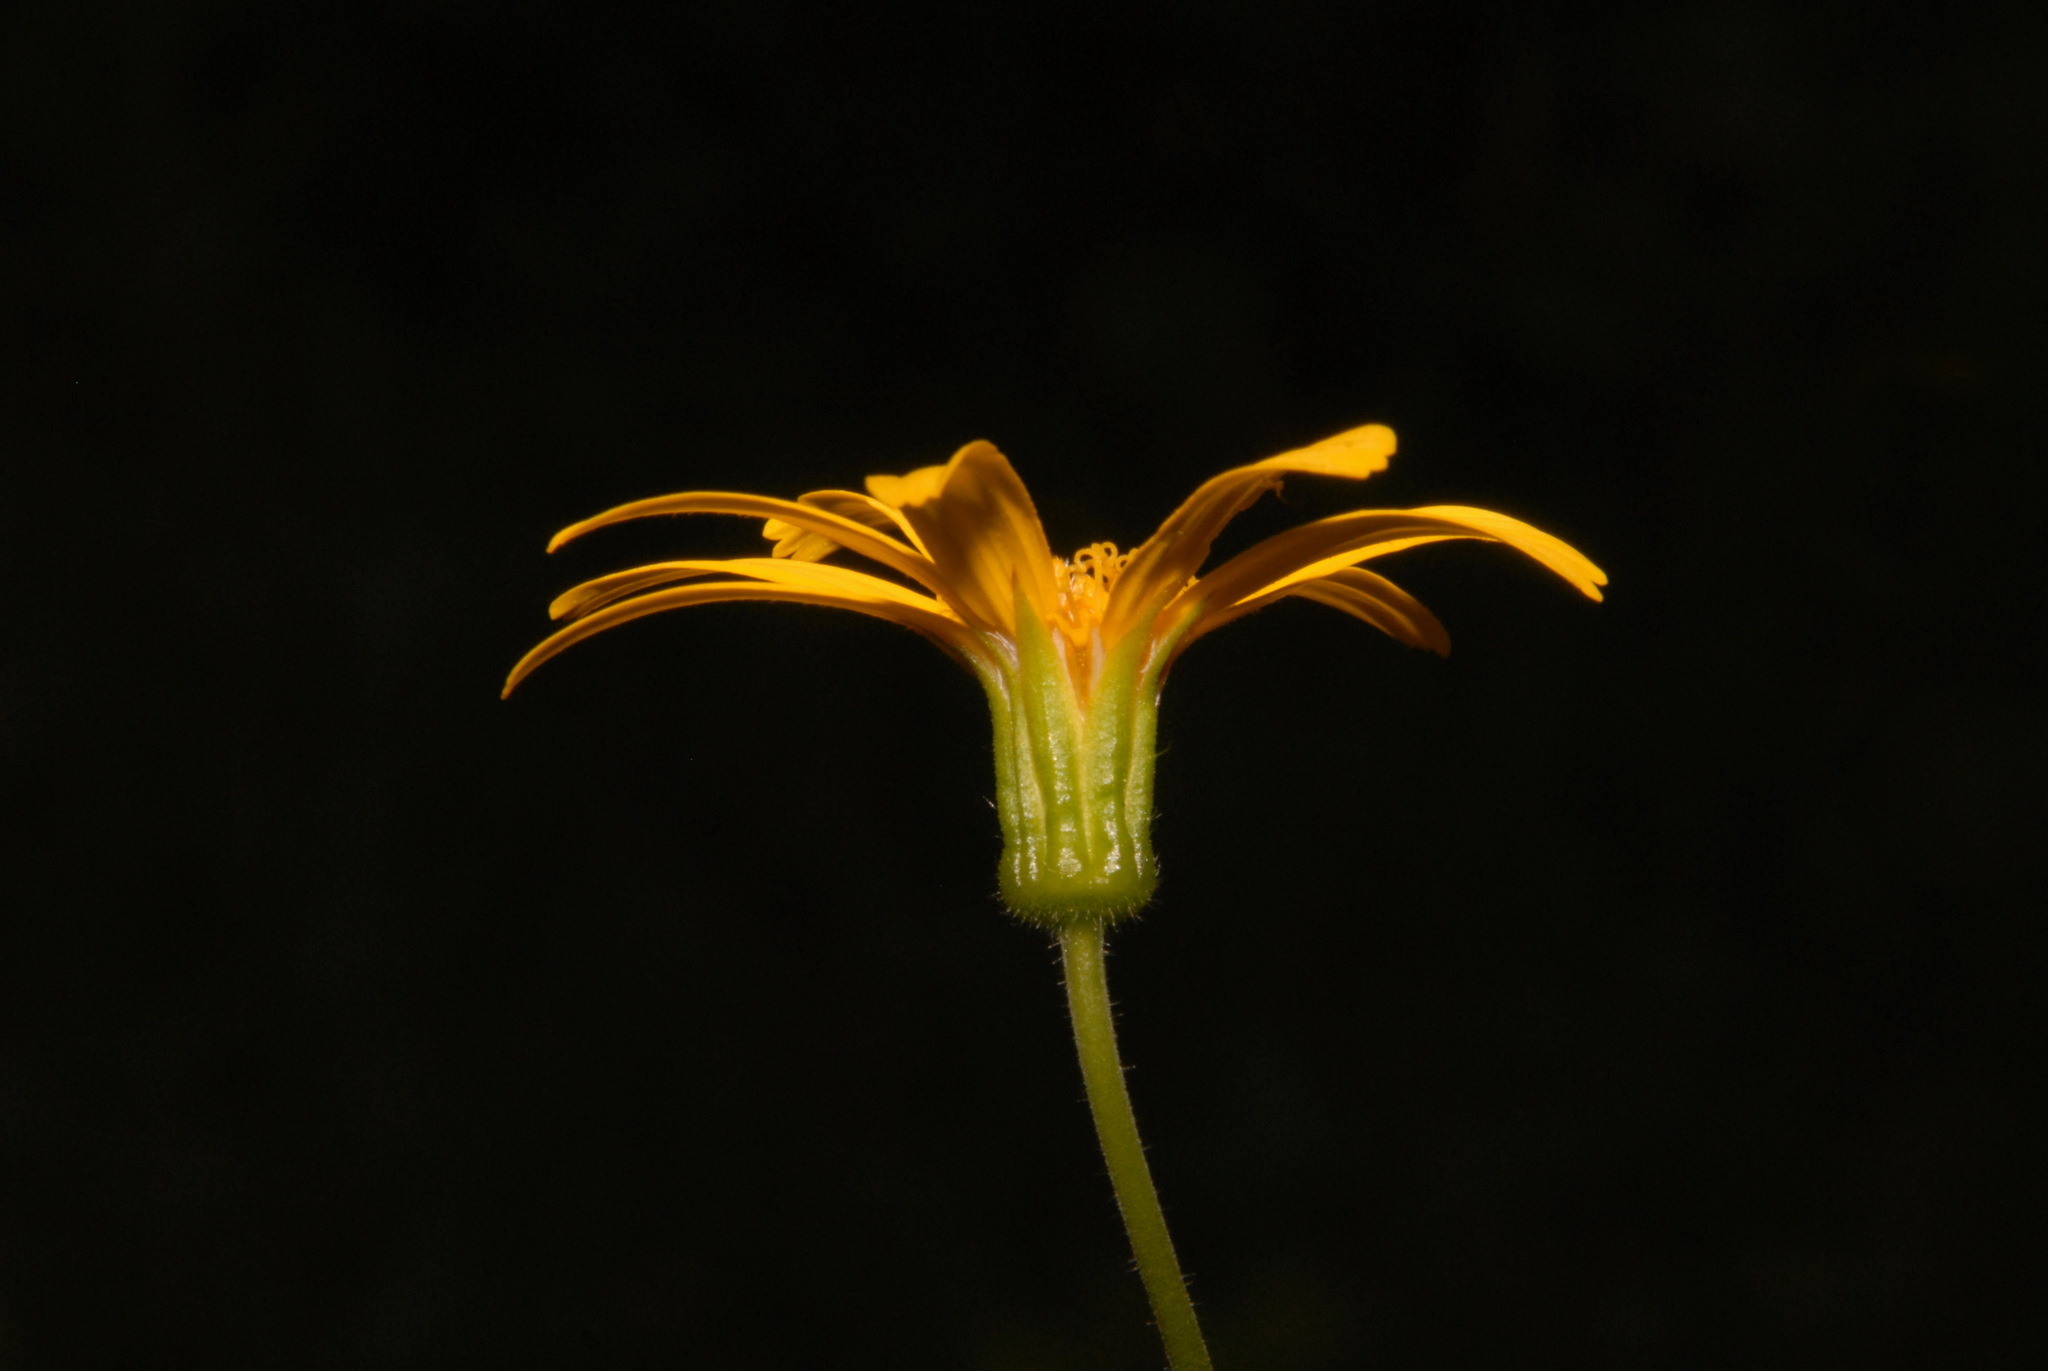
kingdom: Plantae
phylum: Tracheophyta
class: Magnoliopsida
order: Asterales
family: Asteraceae
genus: Arnica
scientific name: Arnica latifolia
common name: Arnica
